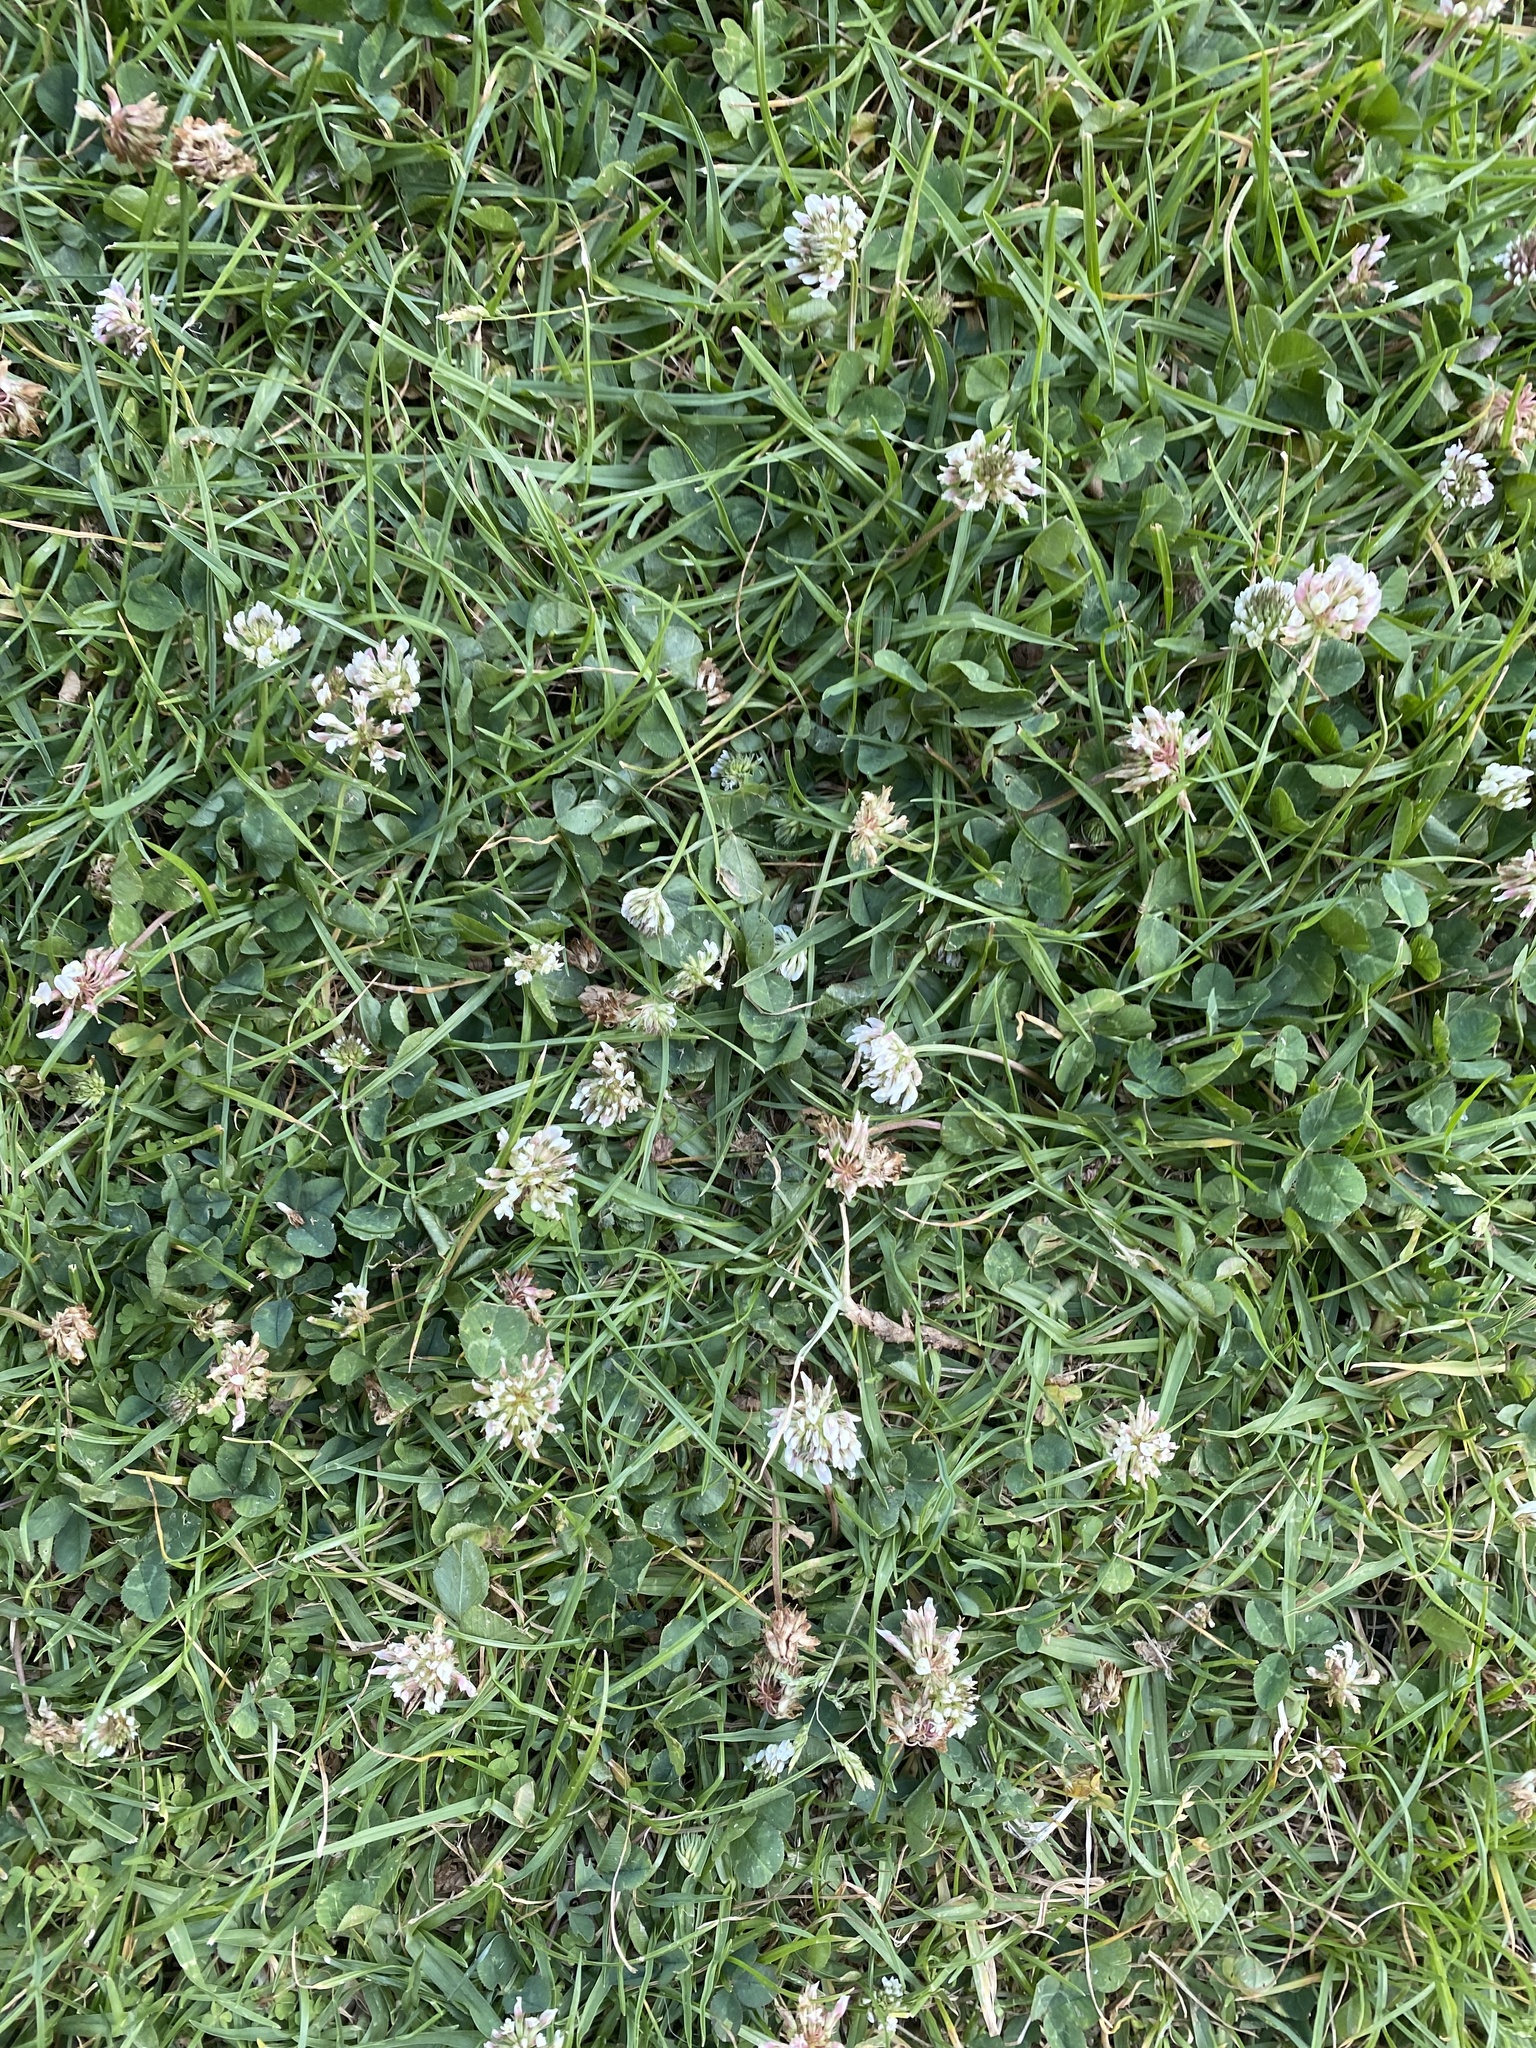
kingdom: Plantae
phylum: Tracheophyta
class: Magnoliopsida
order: Fabales
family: Fabaceae
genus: Trifolium
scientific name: Trifolium repens
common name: White clover
